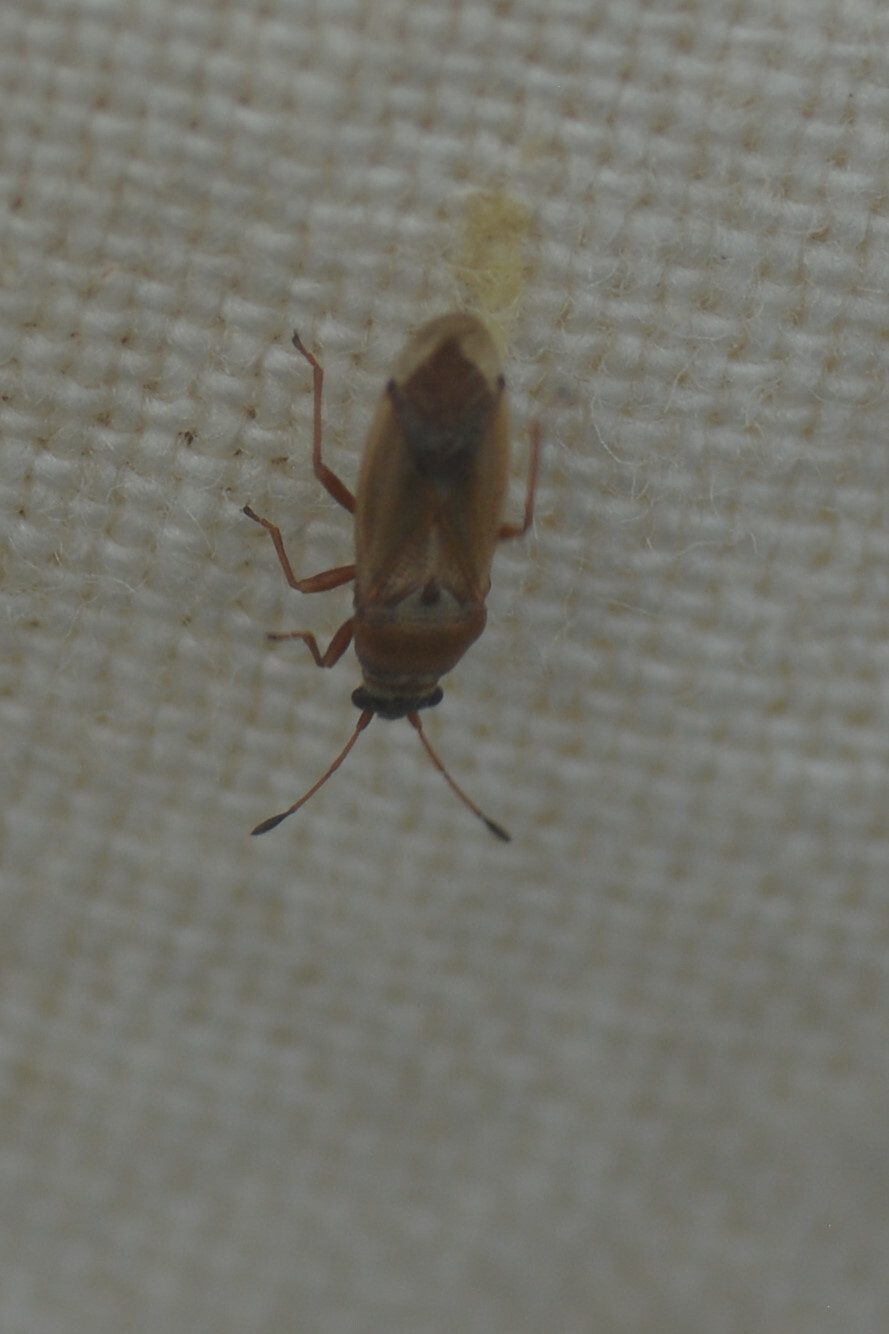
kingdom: Animalia
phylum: Arthropoda
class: Insecta
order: Hemiptera
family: Cymidae
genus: Cymus
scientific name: Cymus melanocephalus
